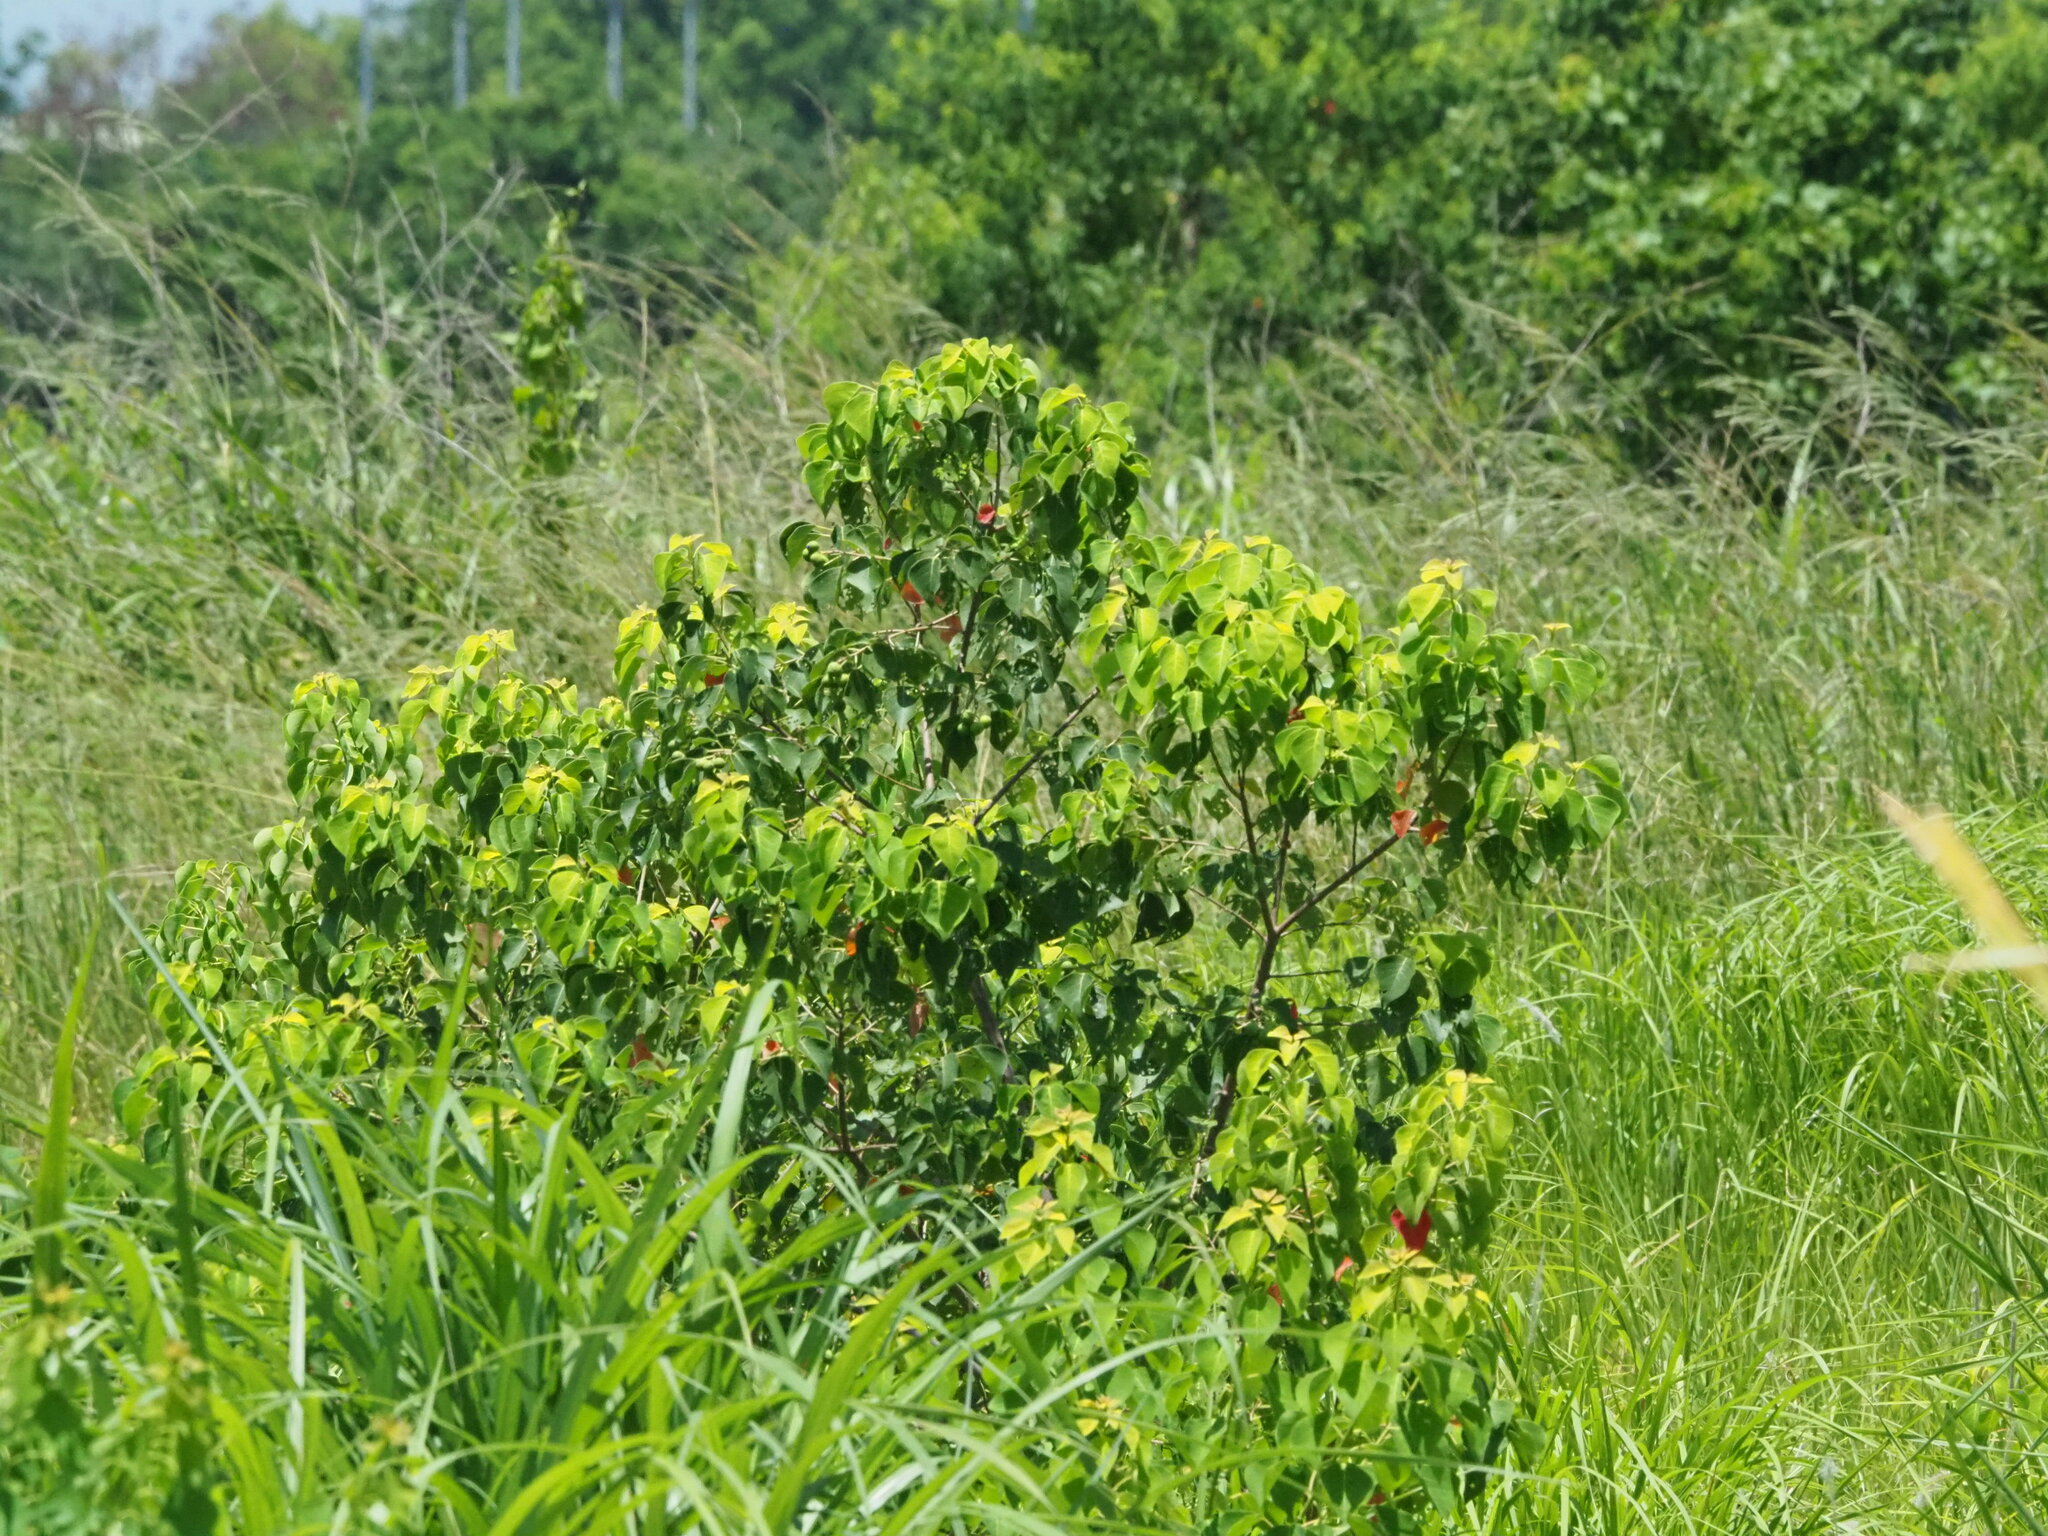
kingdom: Plantae
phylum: Tracheophyta
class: Magnoliopsida
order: Malpighiales
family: Euphorbiaceae
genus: Triadica
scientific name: Triadica sebifera
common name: Chinese tallow
